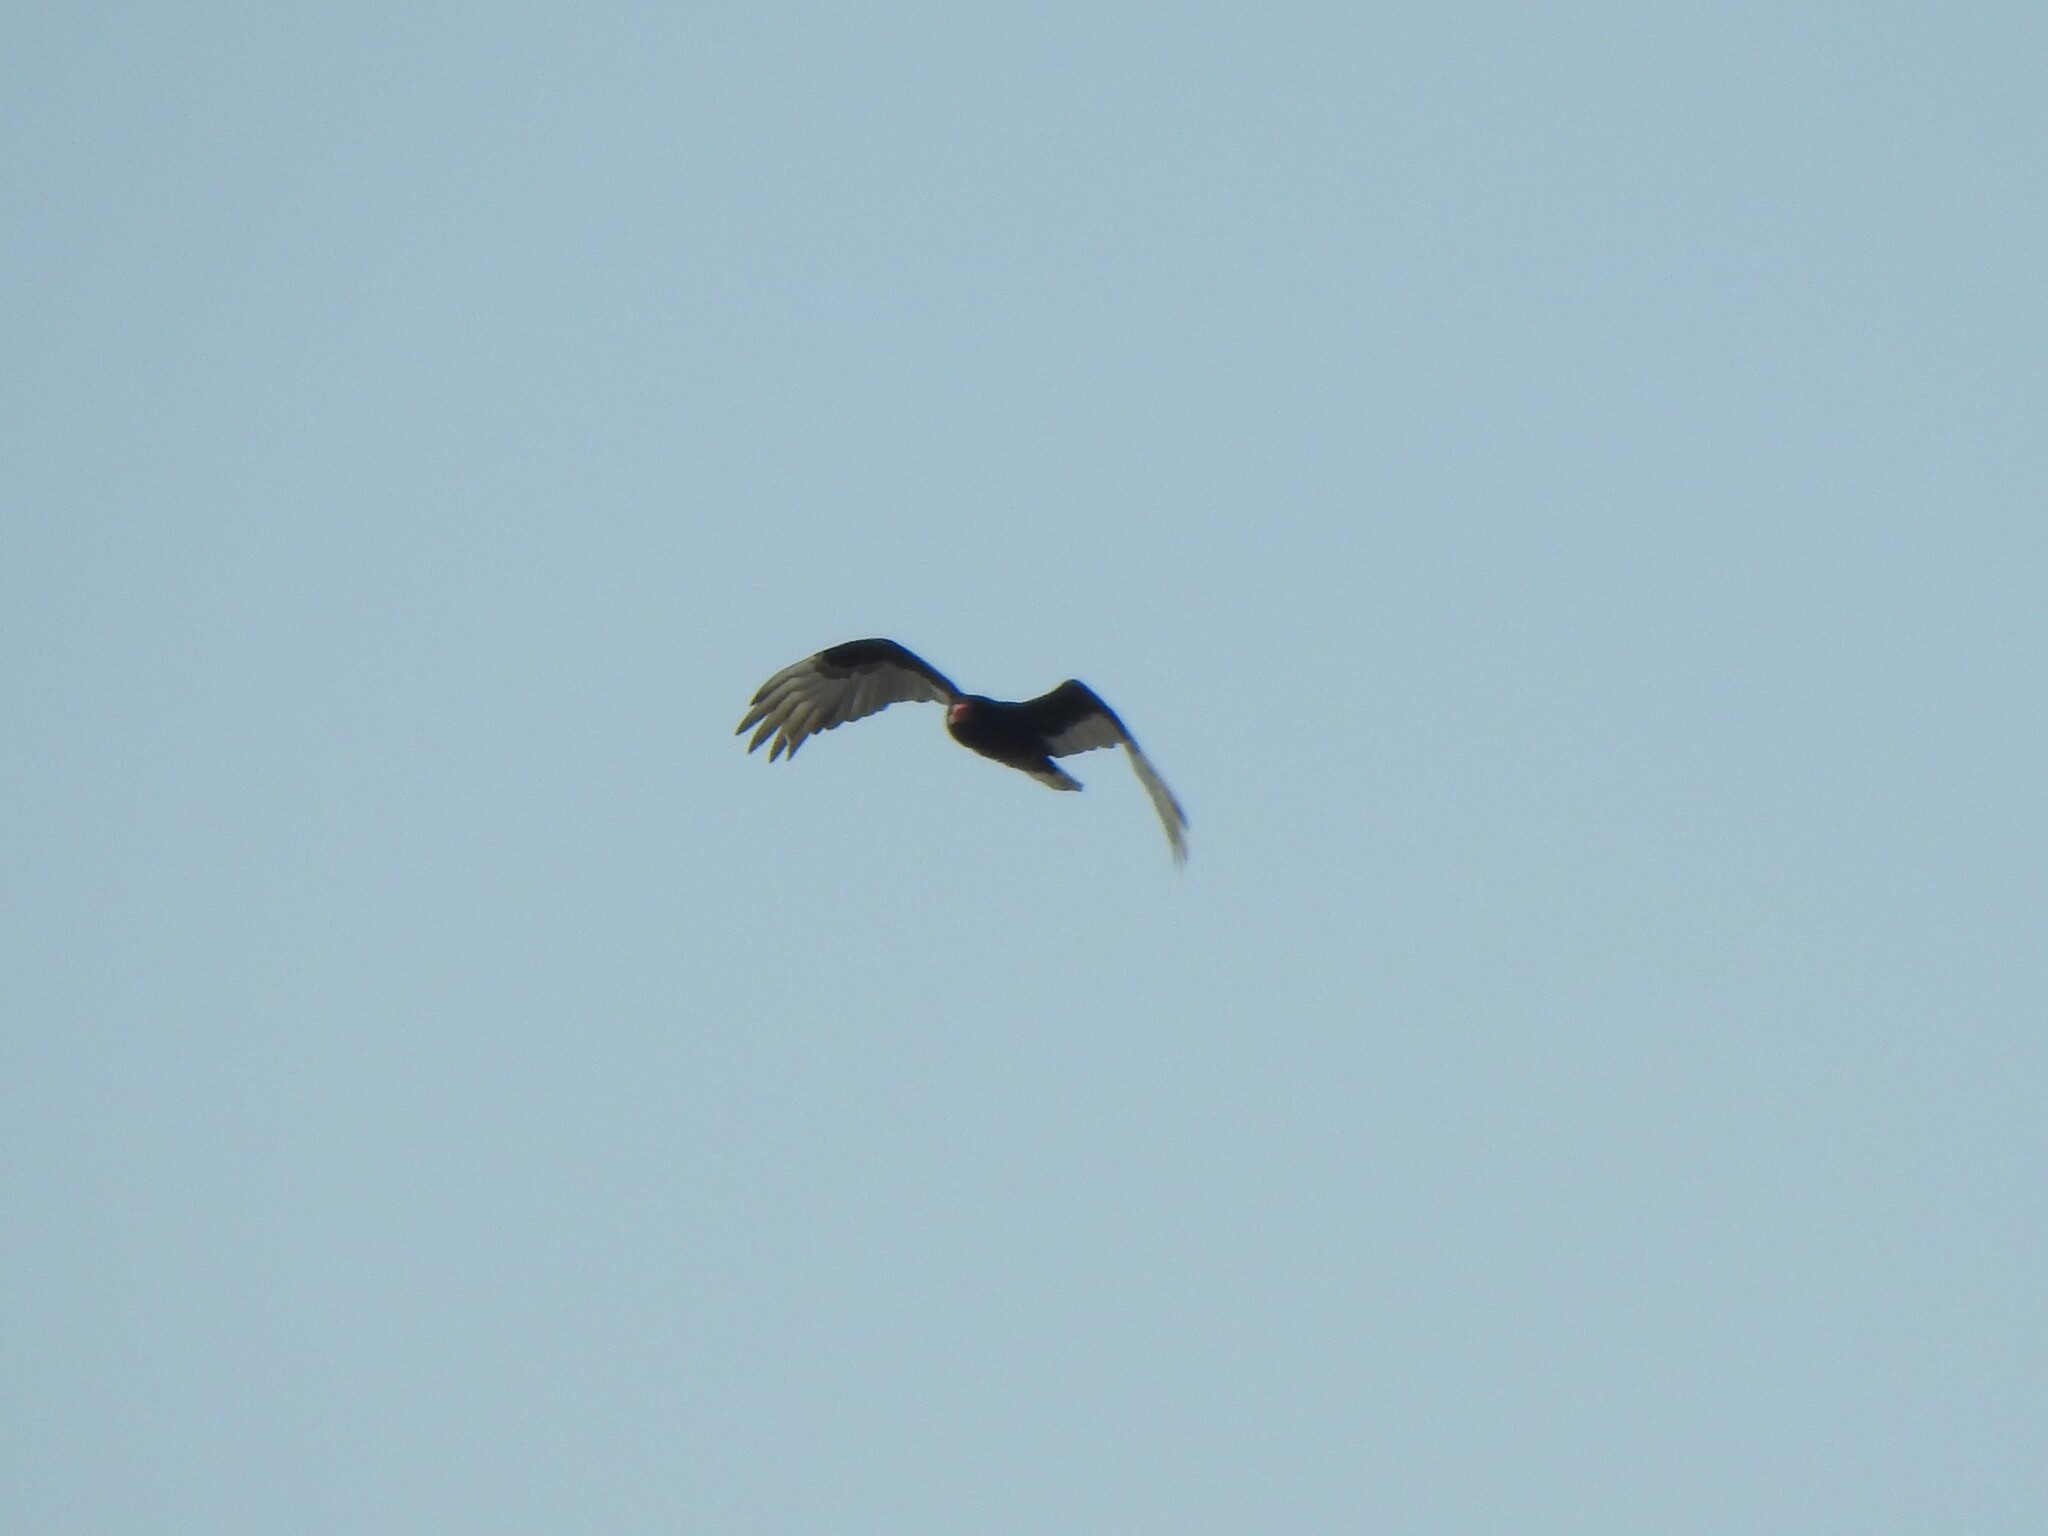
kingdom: Animalia
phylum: Chordata
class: Aves
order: Accipitriformes
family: Cathartidae
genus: Cathartes
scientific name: Cathartes aura
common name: Turkey vulture
